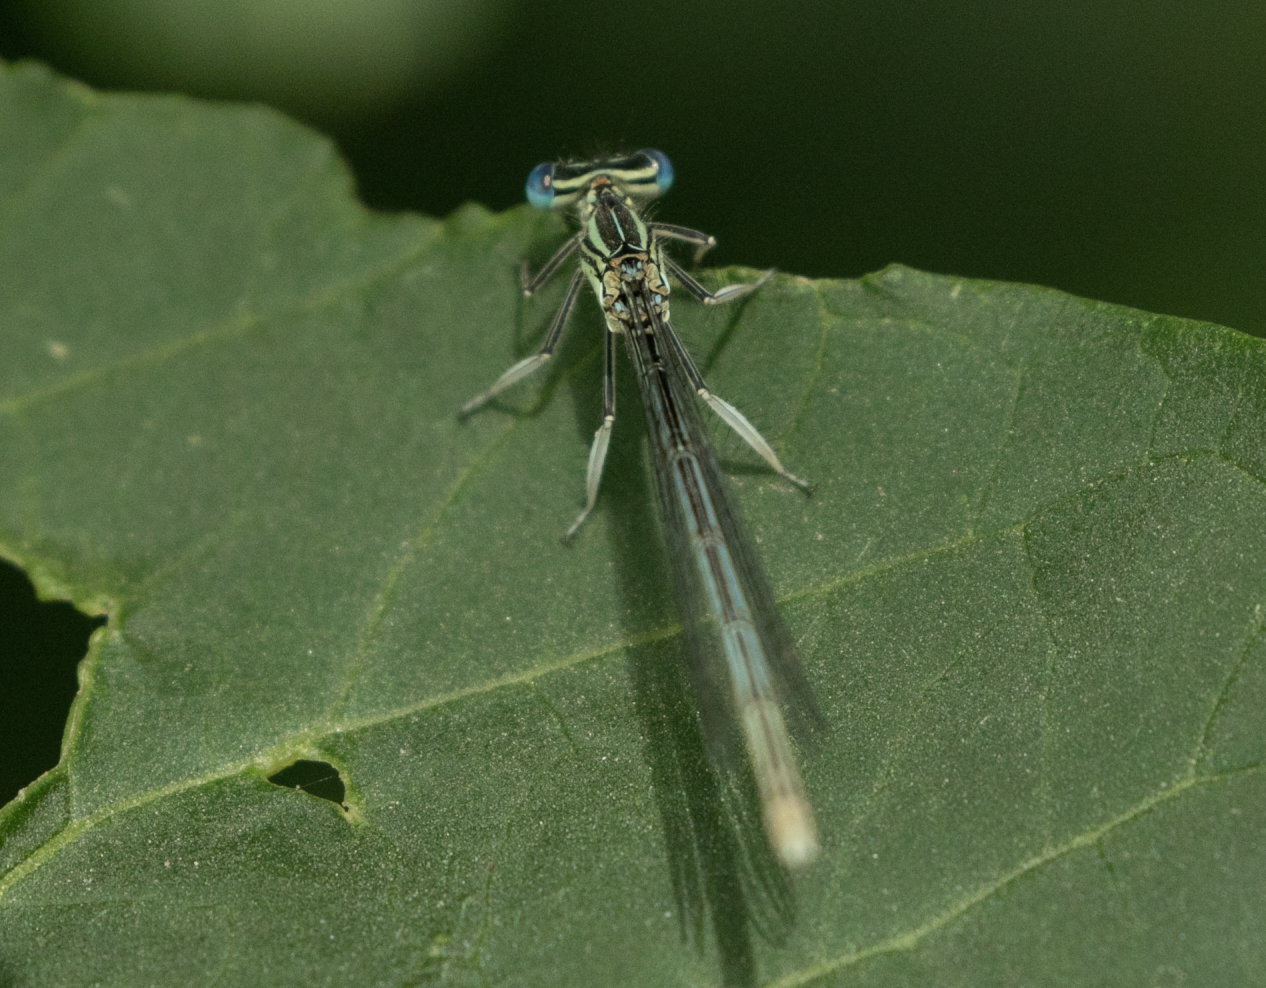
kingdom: Animalia
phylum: Arthropoda
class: Insecta
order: Odonata
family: Platycnemididae
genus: Platycnemis
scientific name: Platycnemis pennipes
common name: White-legged damselfly
